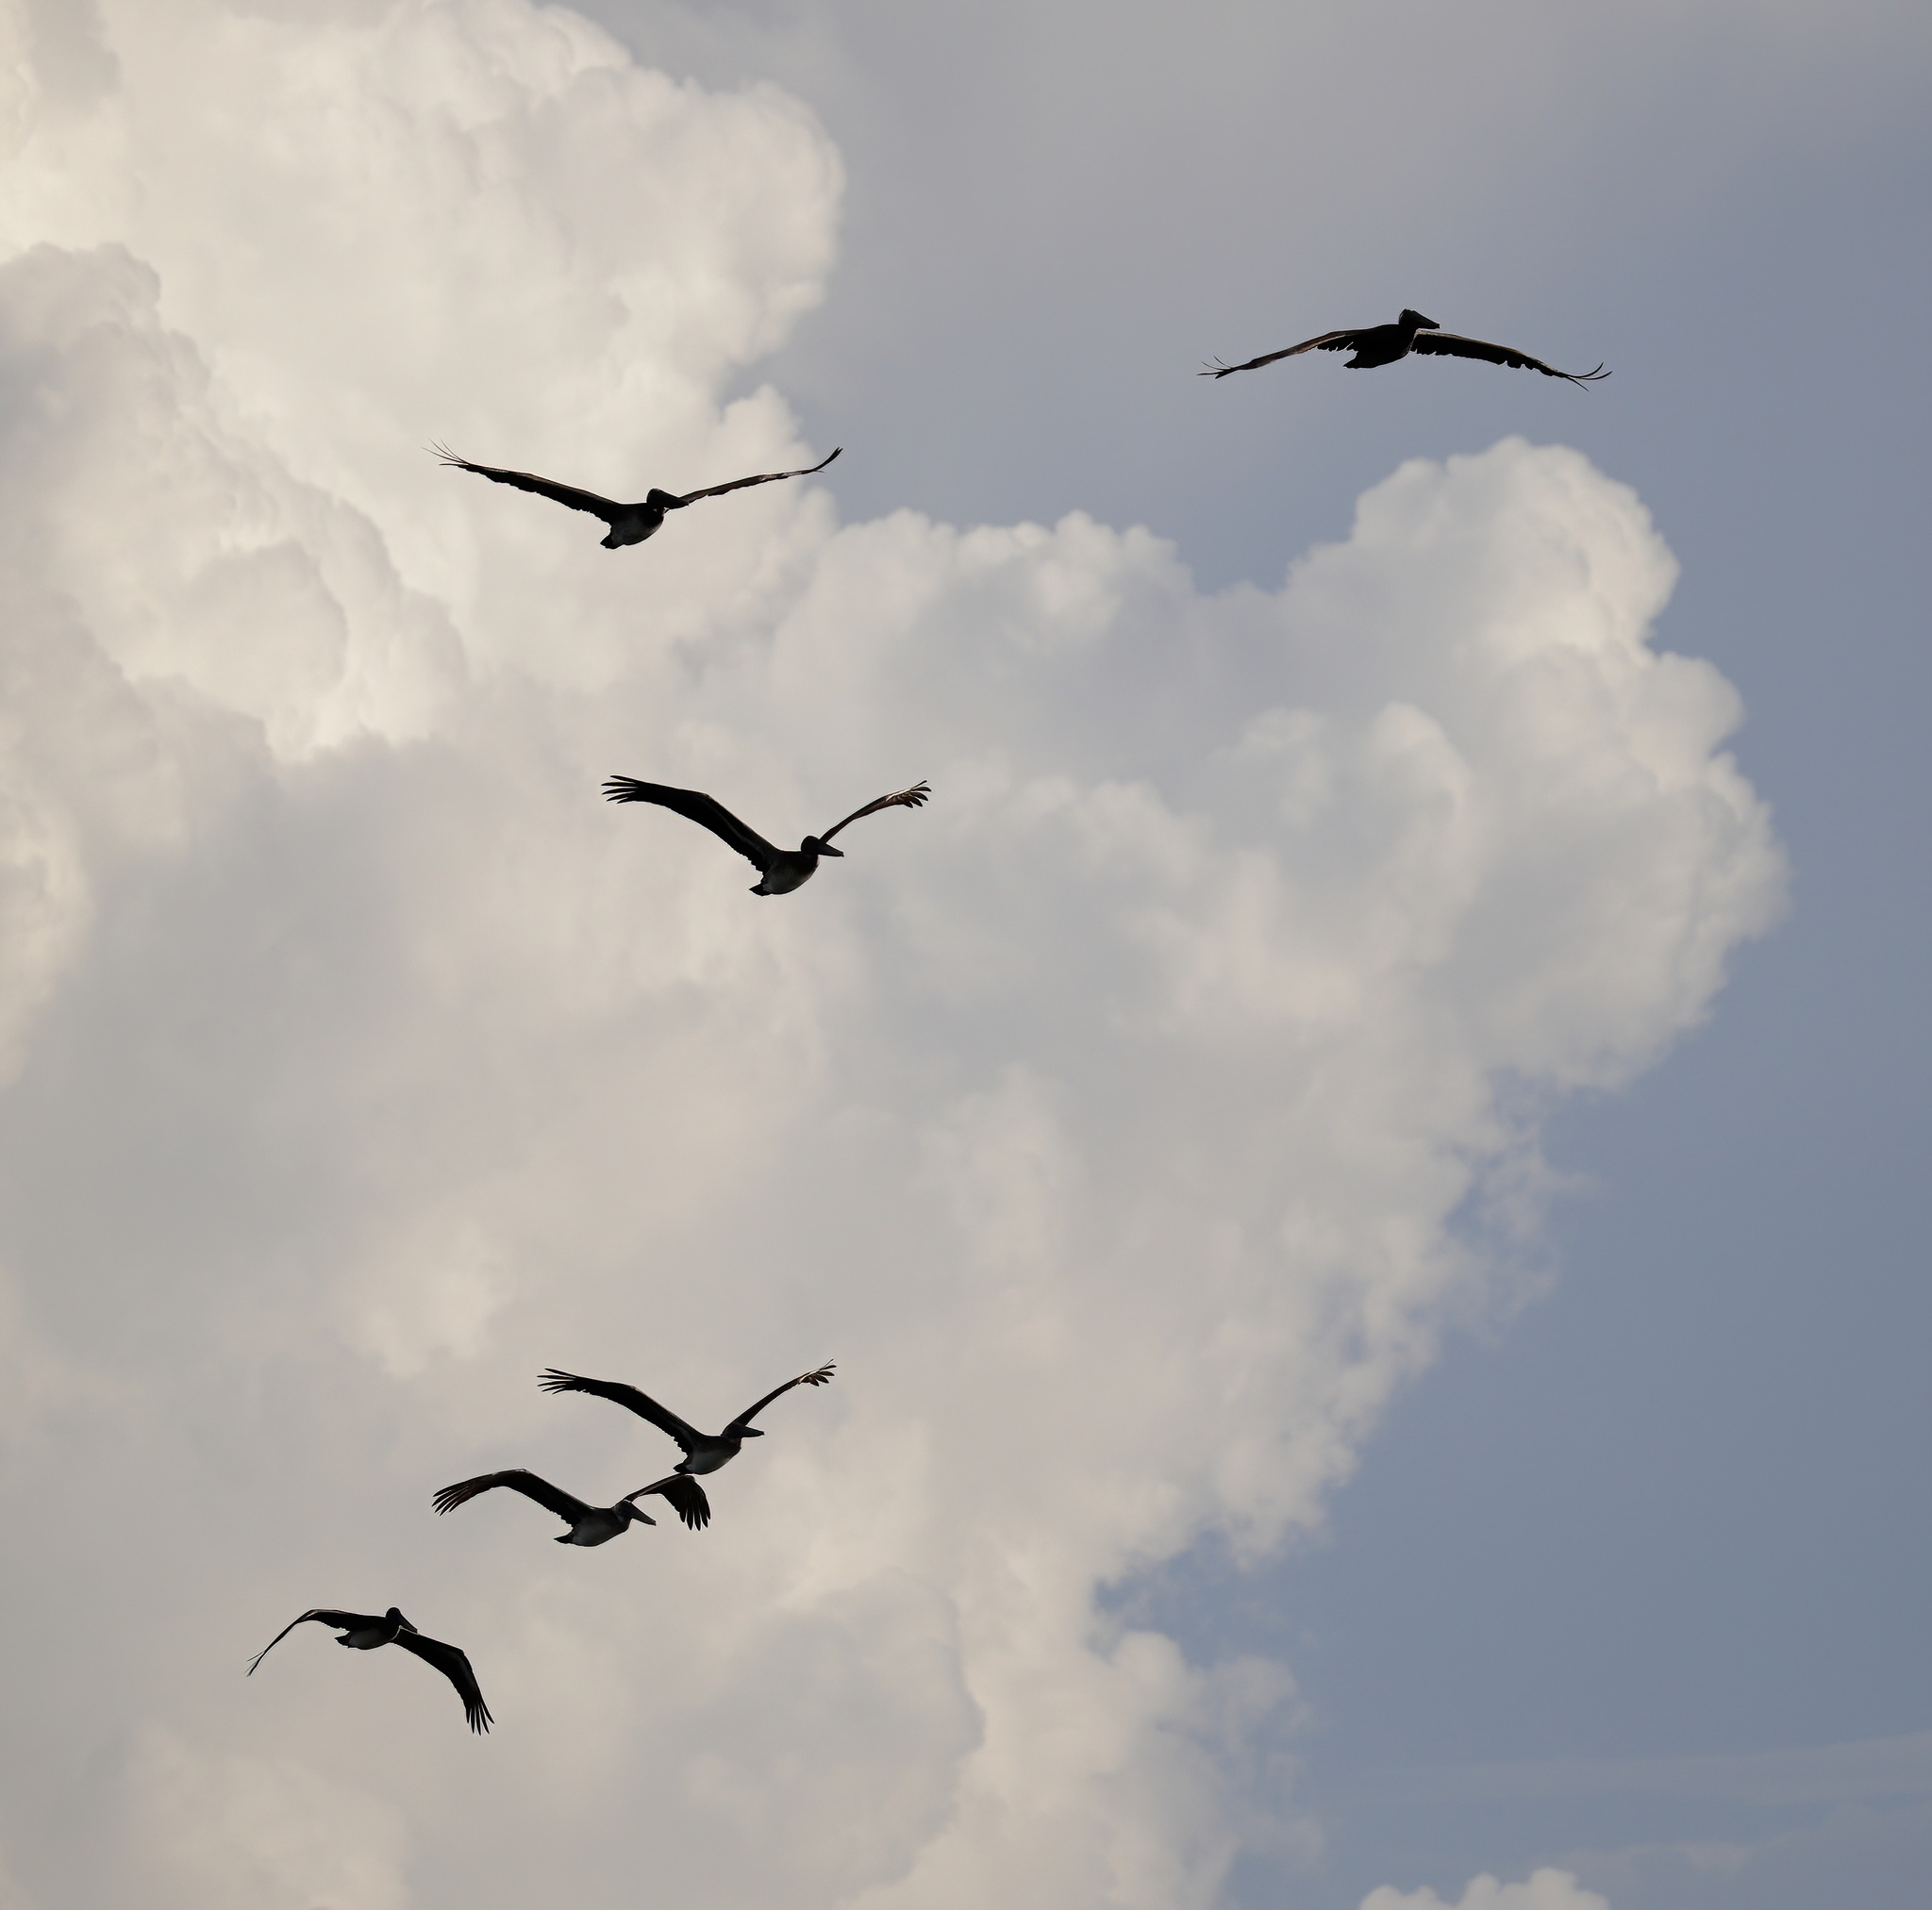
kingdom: Animalia
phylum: Chordata
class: Aves
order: Pelecaniformes
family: Pelecanidae
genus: Pelecanus
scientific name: Pelecanus occidentalis
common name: Brown pelican
